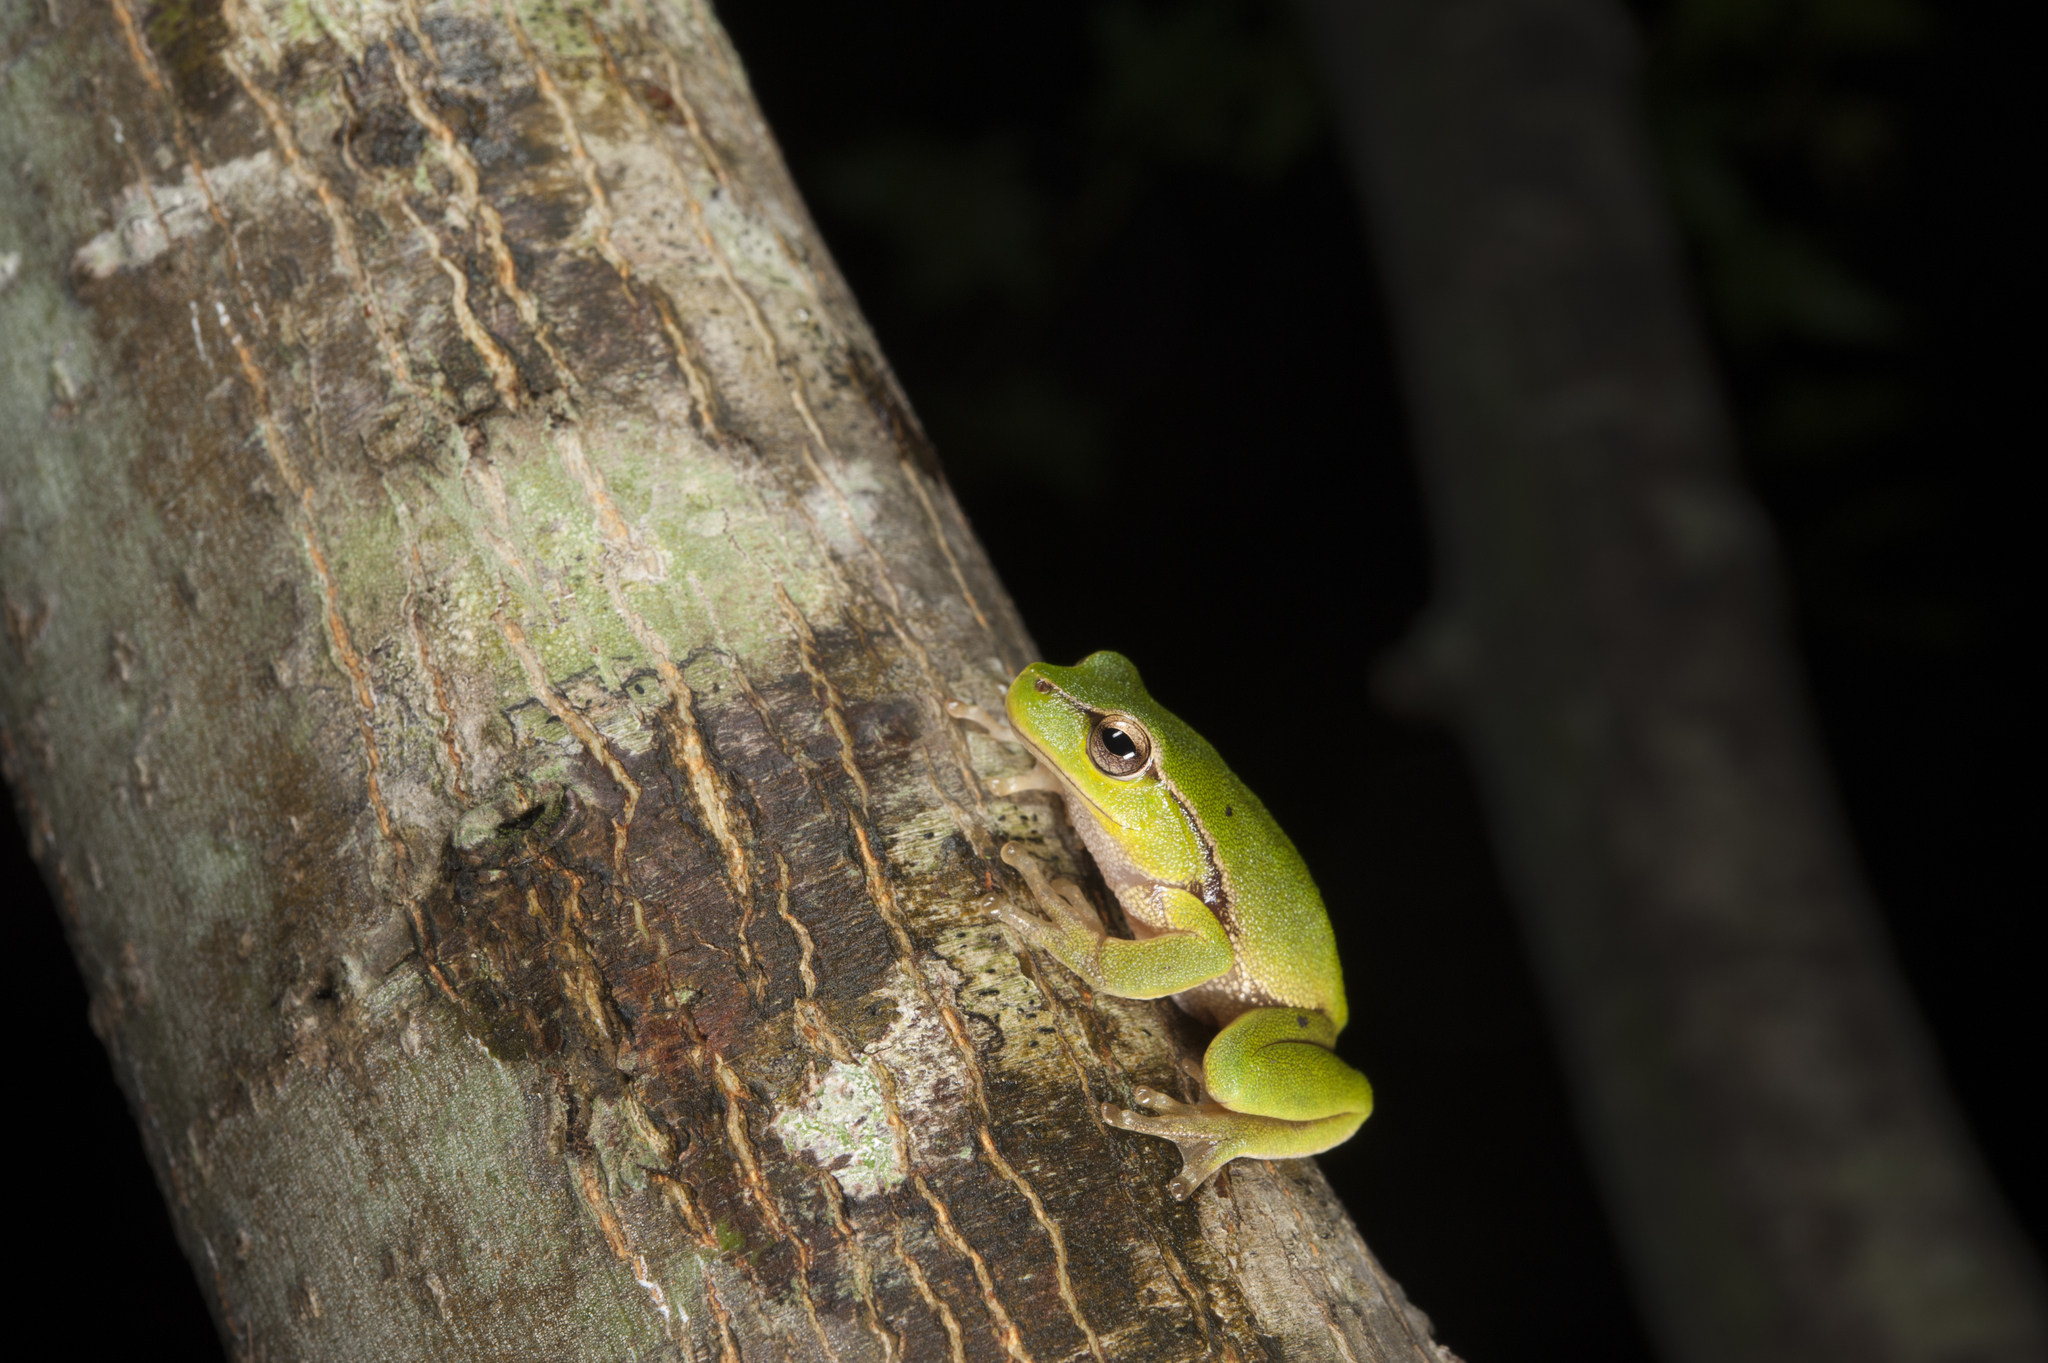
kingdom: Animalia
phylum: Chordata
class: Amphibia
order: Anura
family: Pelodryadidae
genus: Litoria
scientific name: Litoria fallax
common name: Eastern dwarf treefrog
